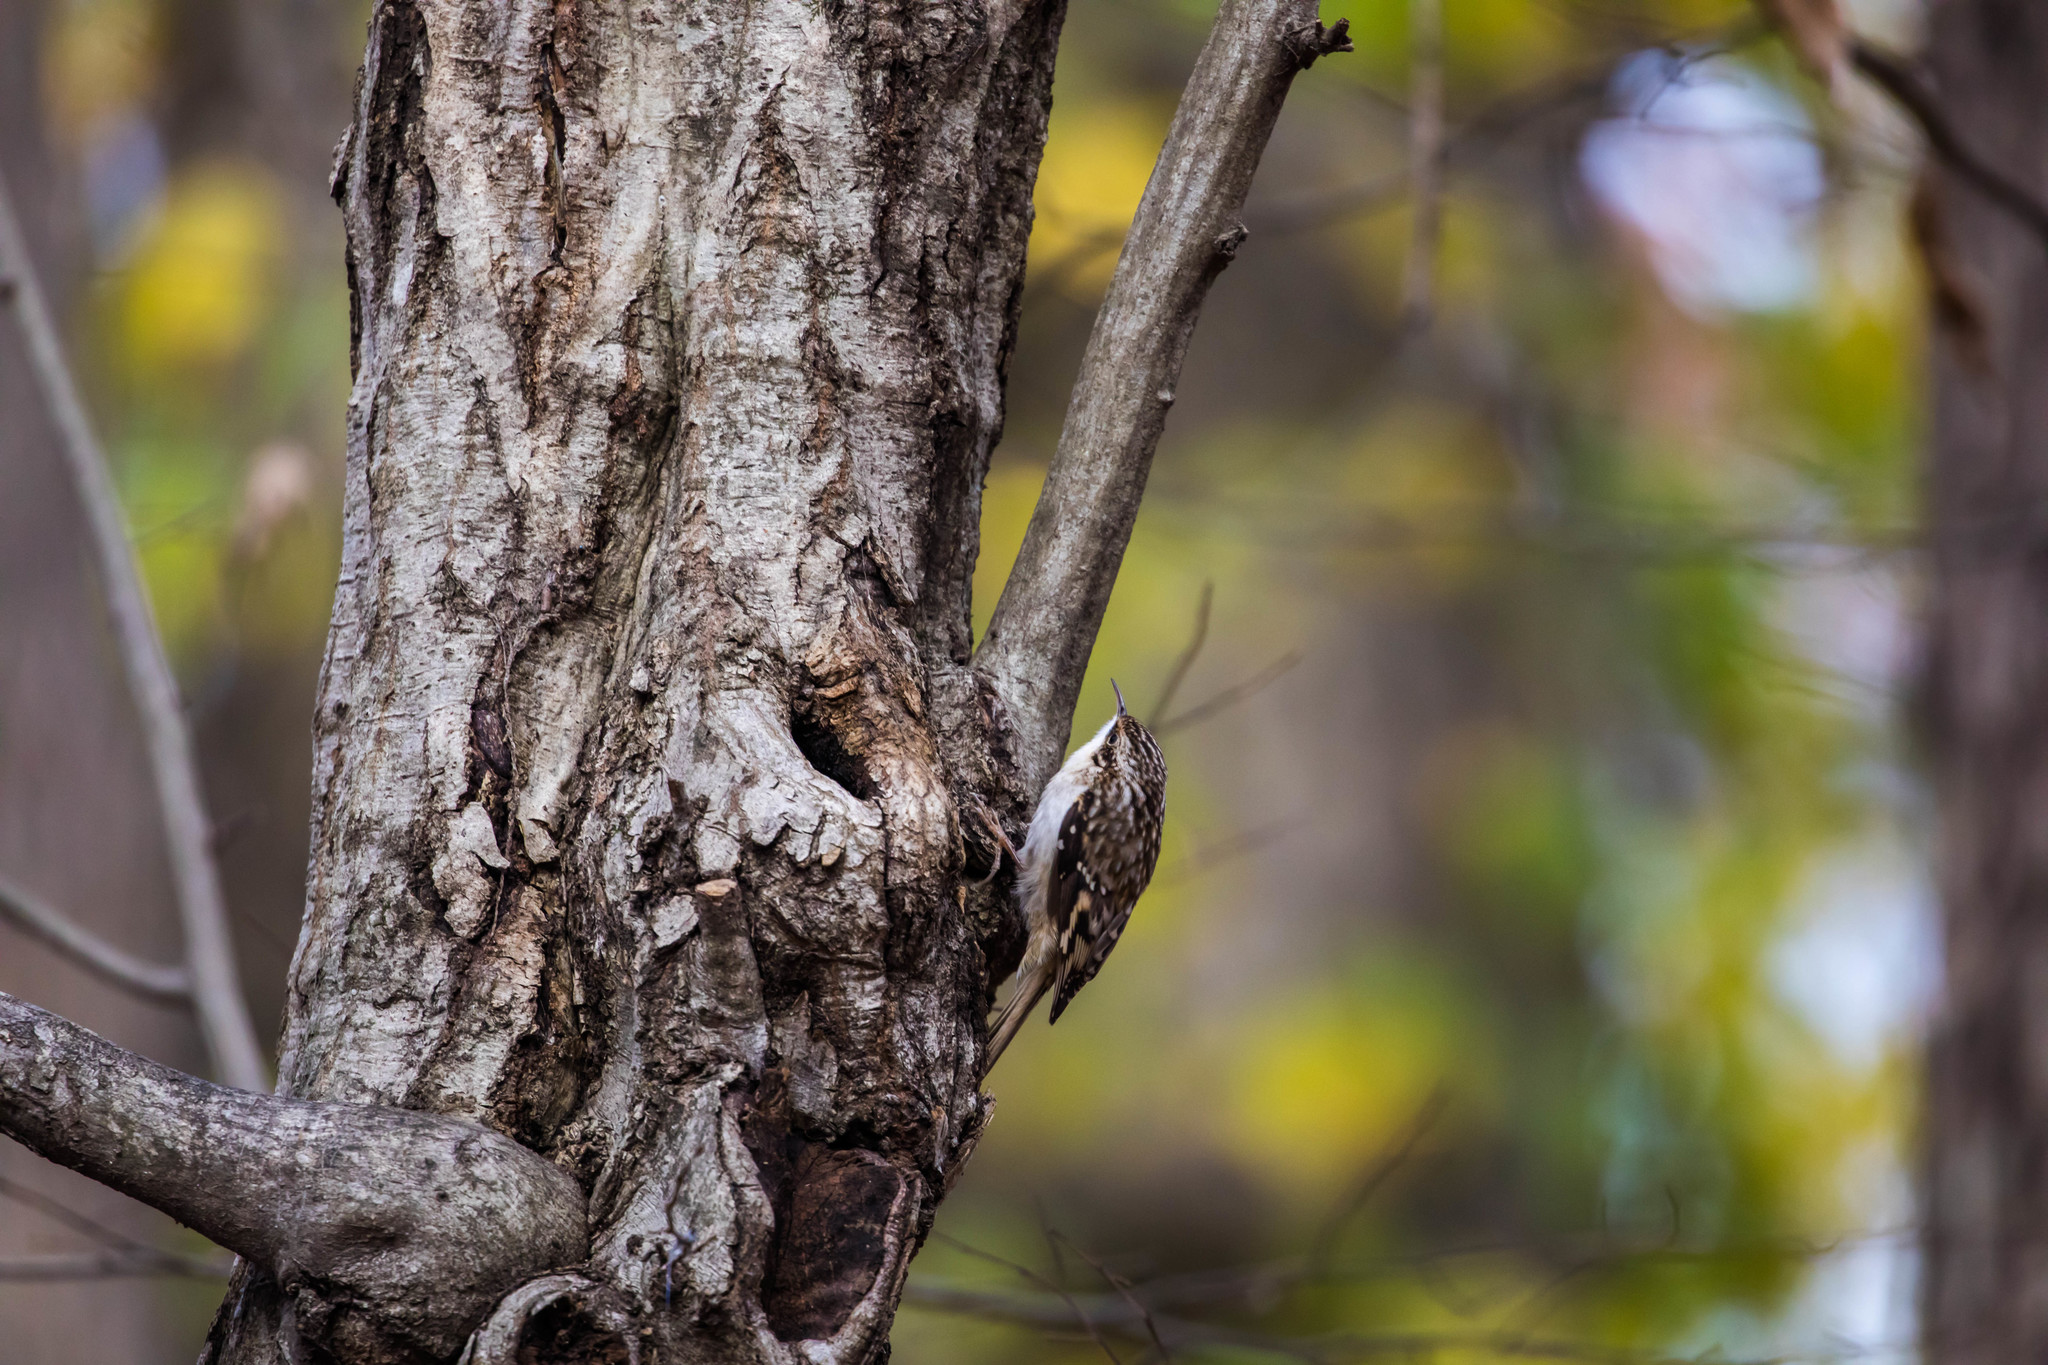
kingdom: Animalia
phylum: Chordata
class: Aves
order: Passeriformes
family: Certhiidae
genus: Certhia
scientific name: Certhia americana
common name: Brown creeper
